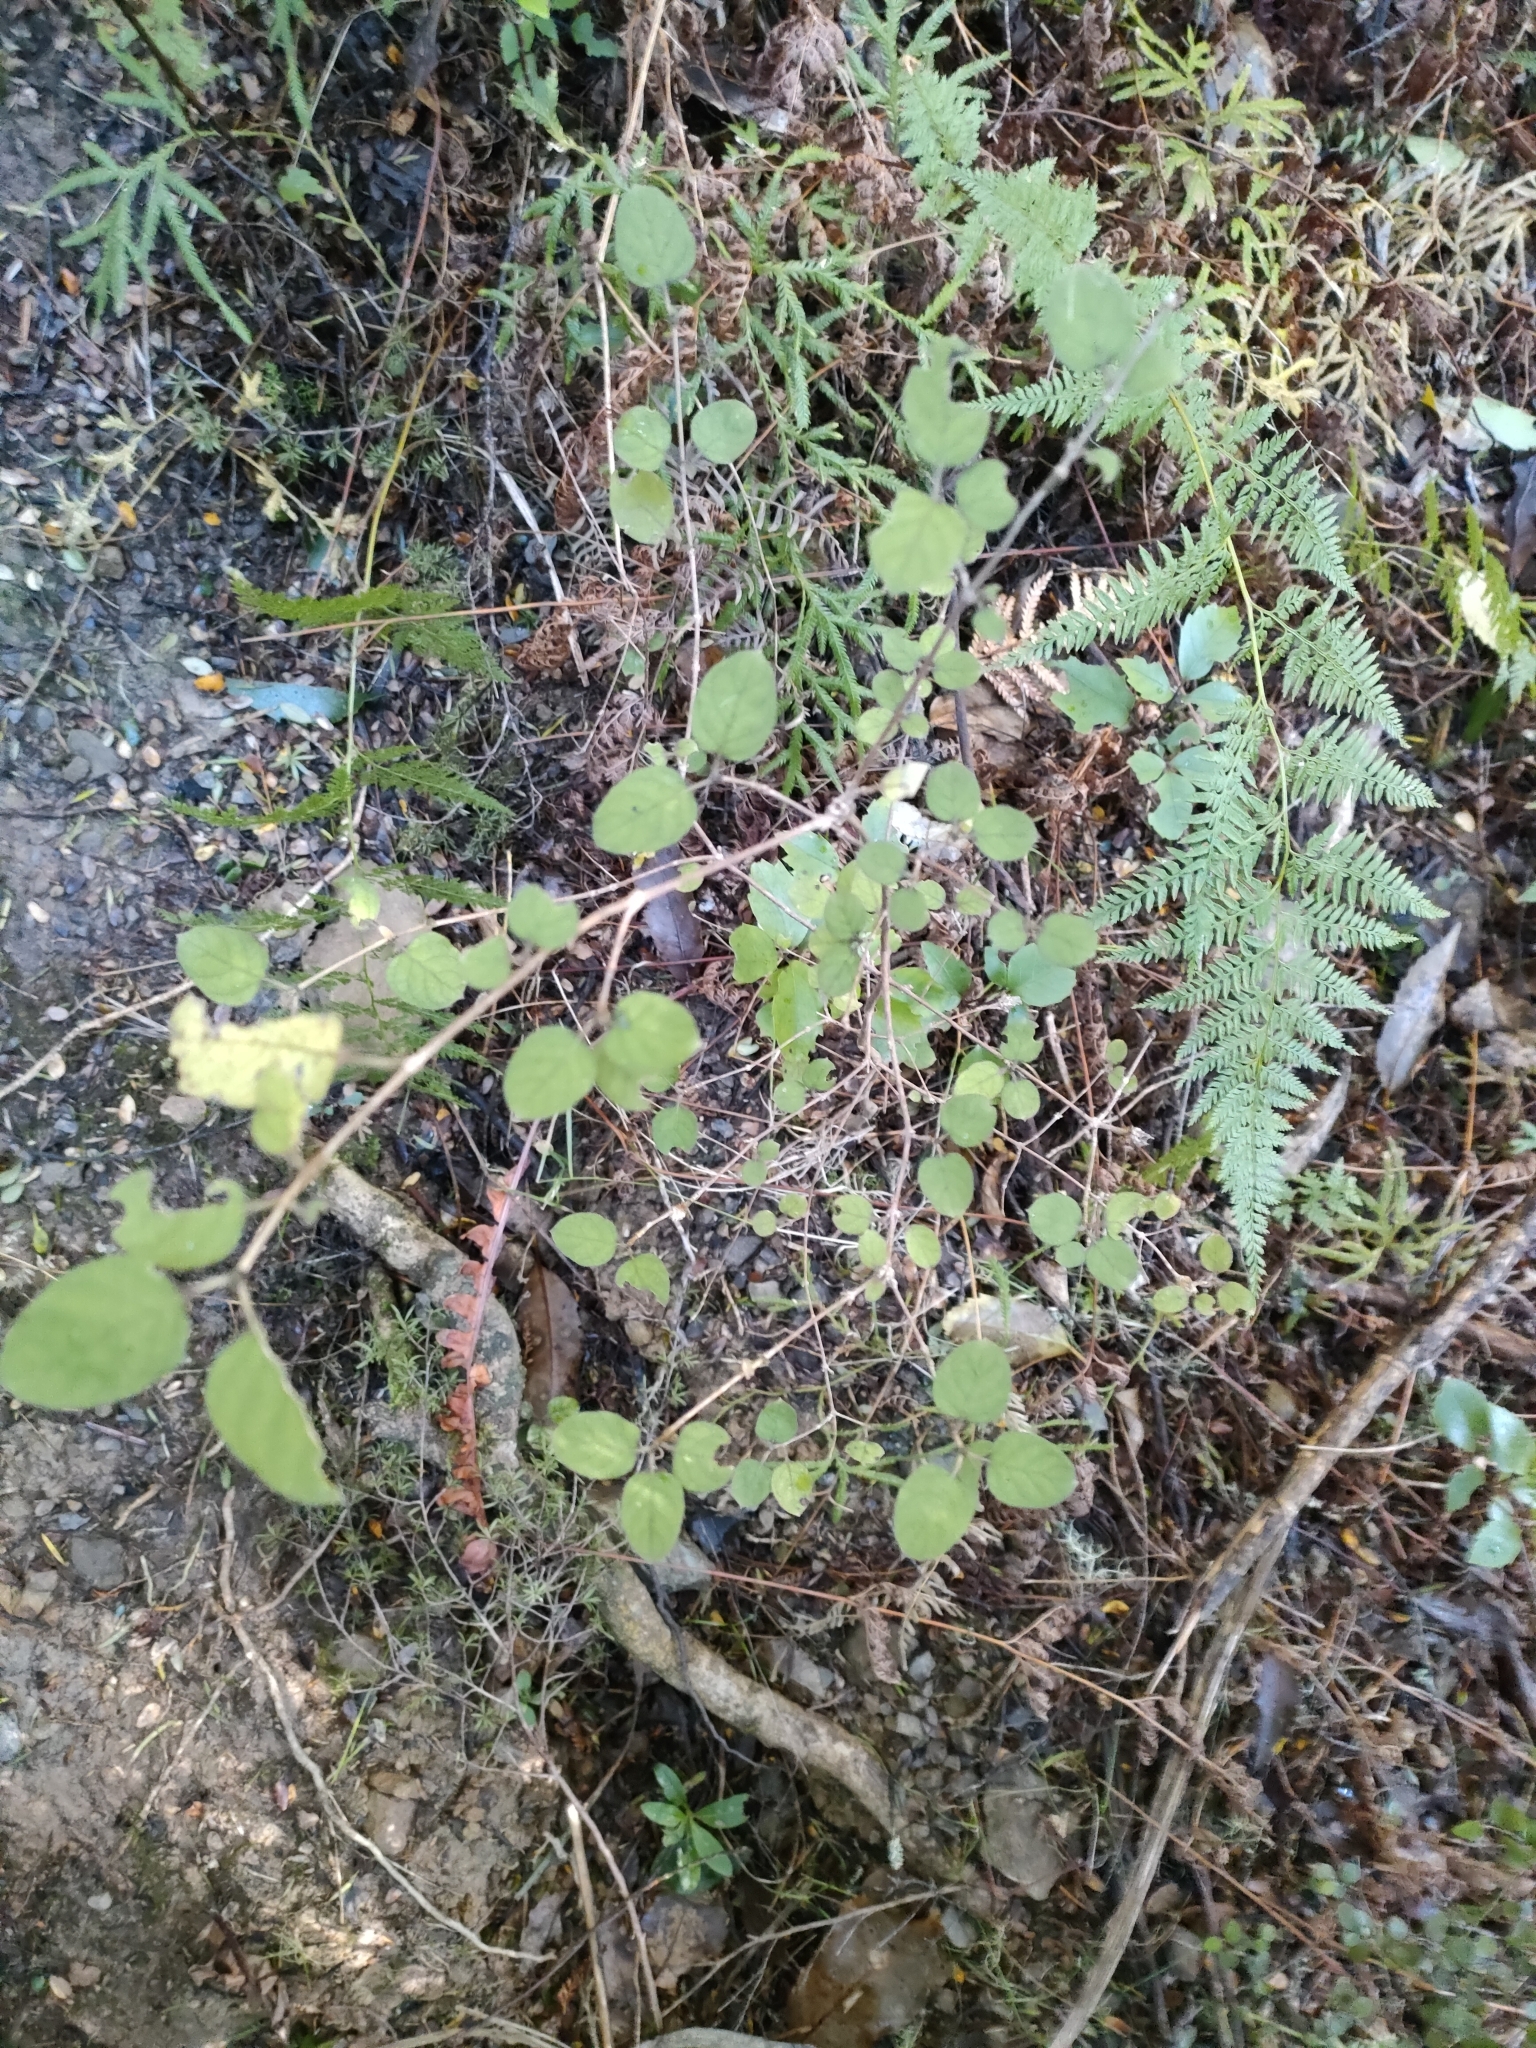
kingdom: Plantae
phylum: Tracheophyta
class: Magnoliopsida
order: Gentianales
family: Rubiaceae
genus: Coprosma
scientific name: Coprosma rotundifolia
